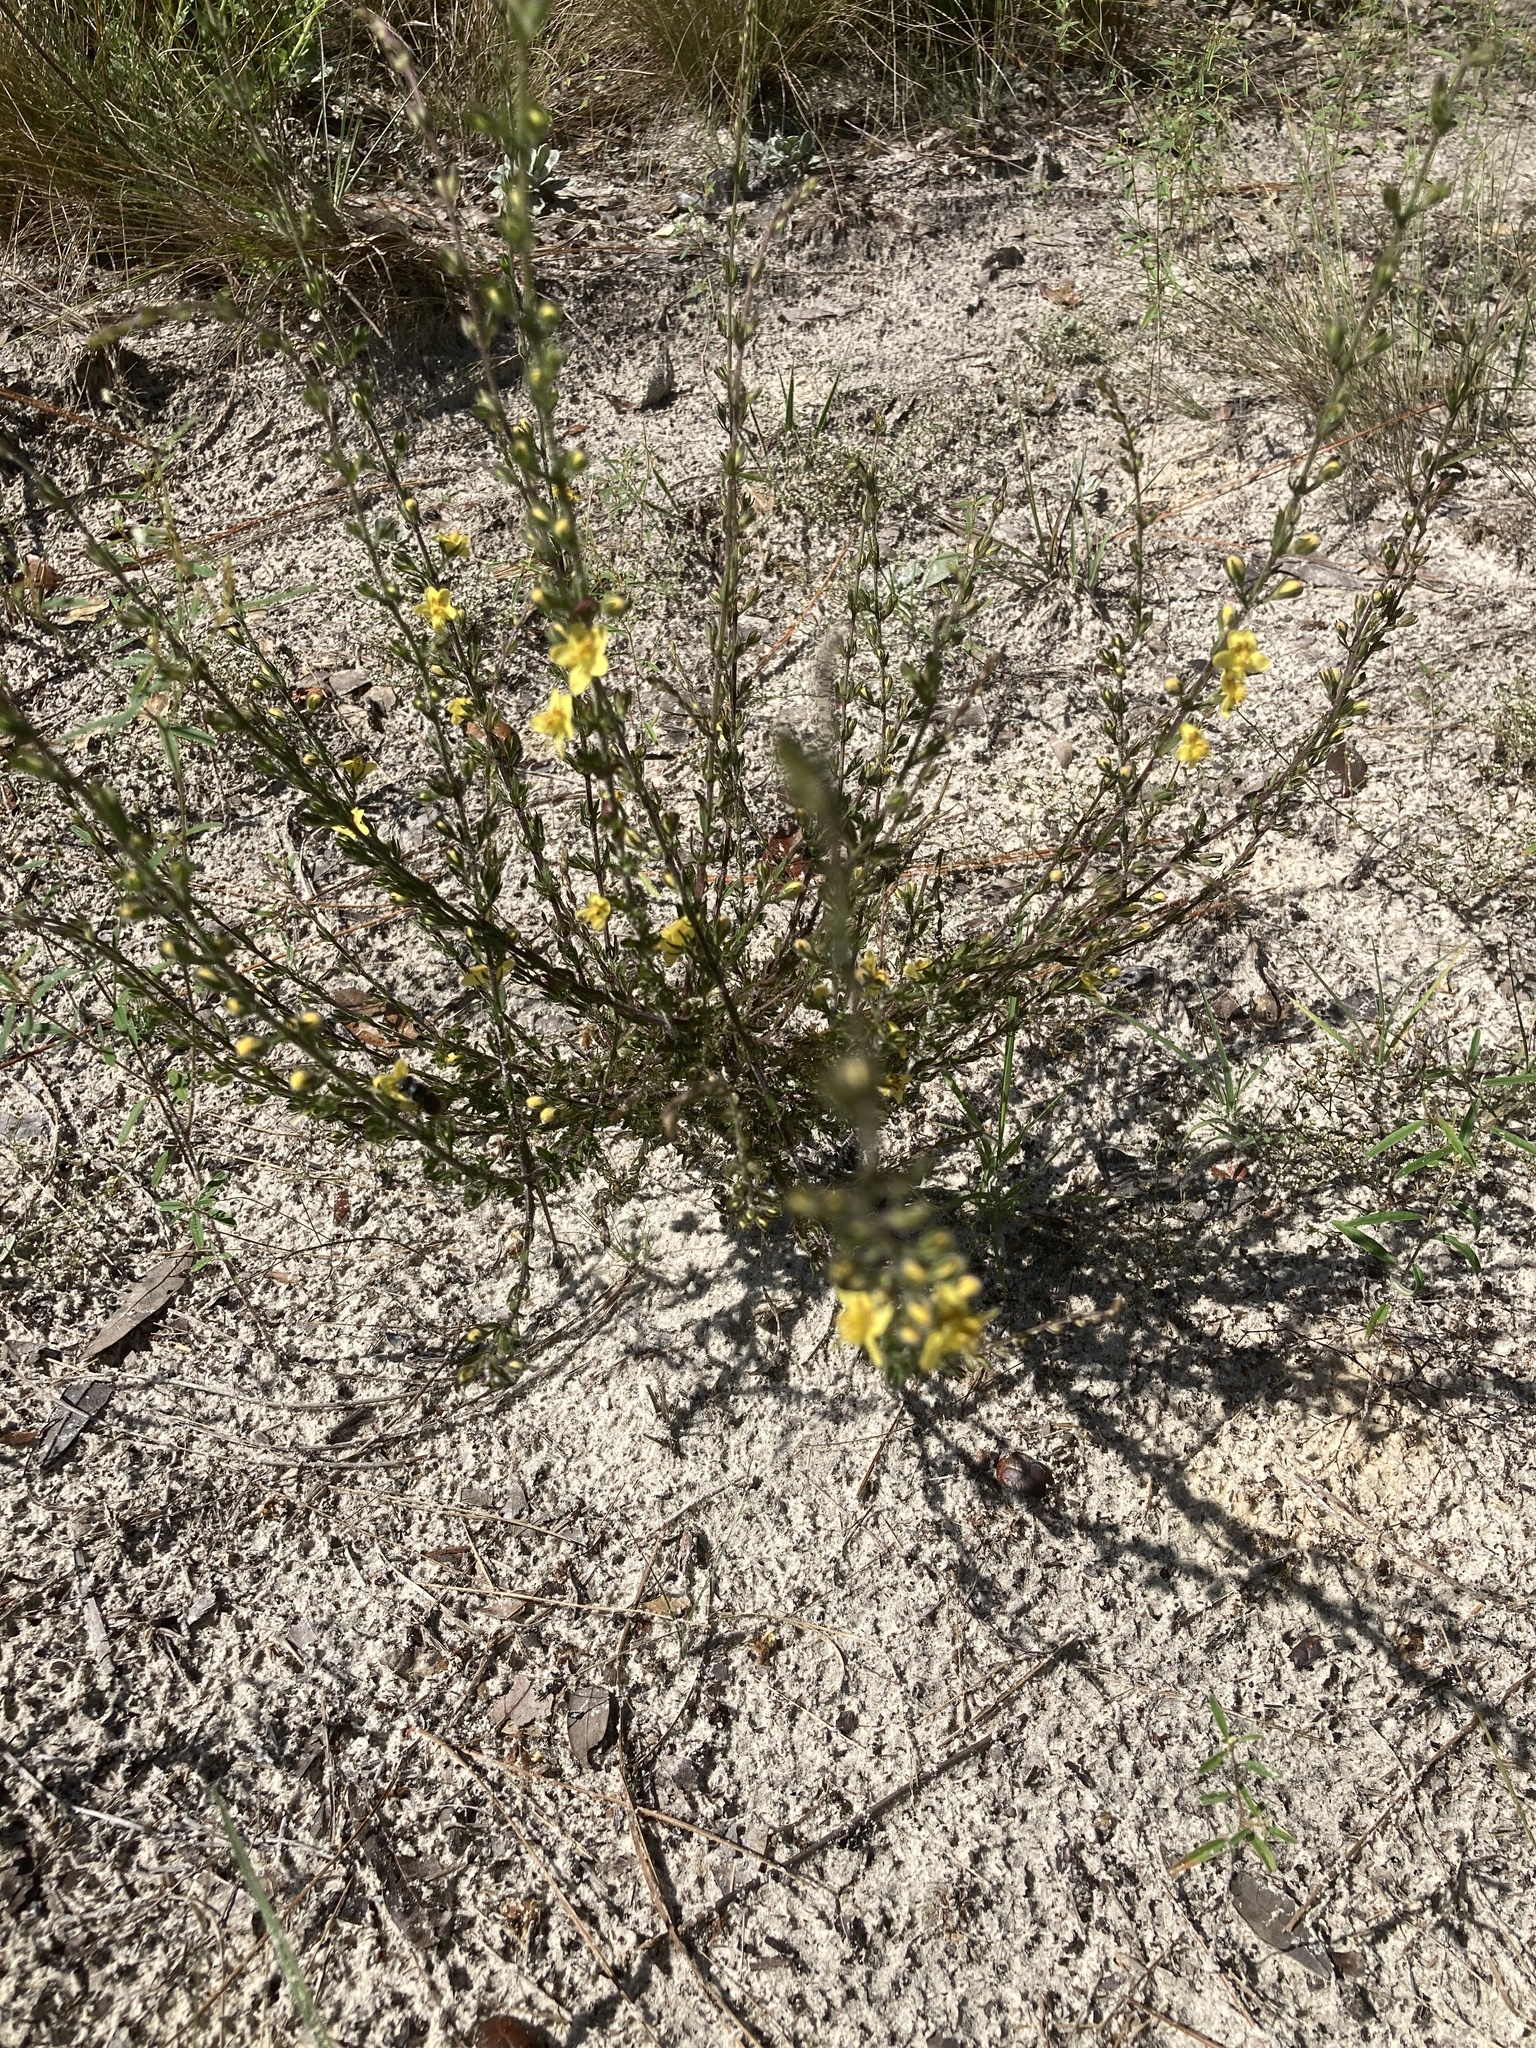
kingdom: Plantae
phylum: Tracheophyta
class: Magnoliopsida
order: Lamiales
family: Orobanchaceae
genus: Seymeria
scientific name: Seymeria pectinata
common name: Piedmont black-senna
